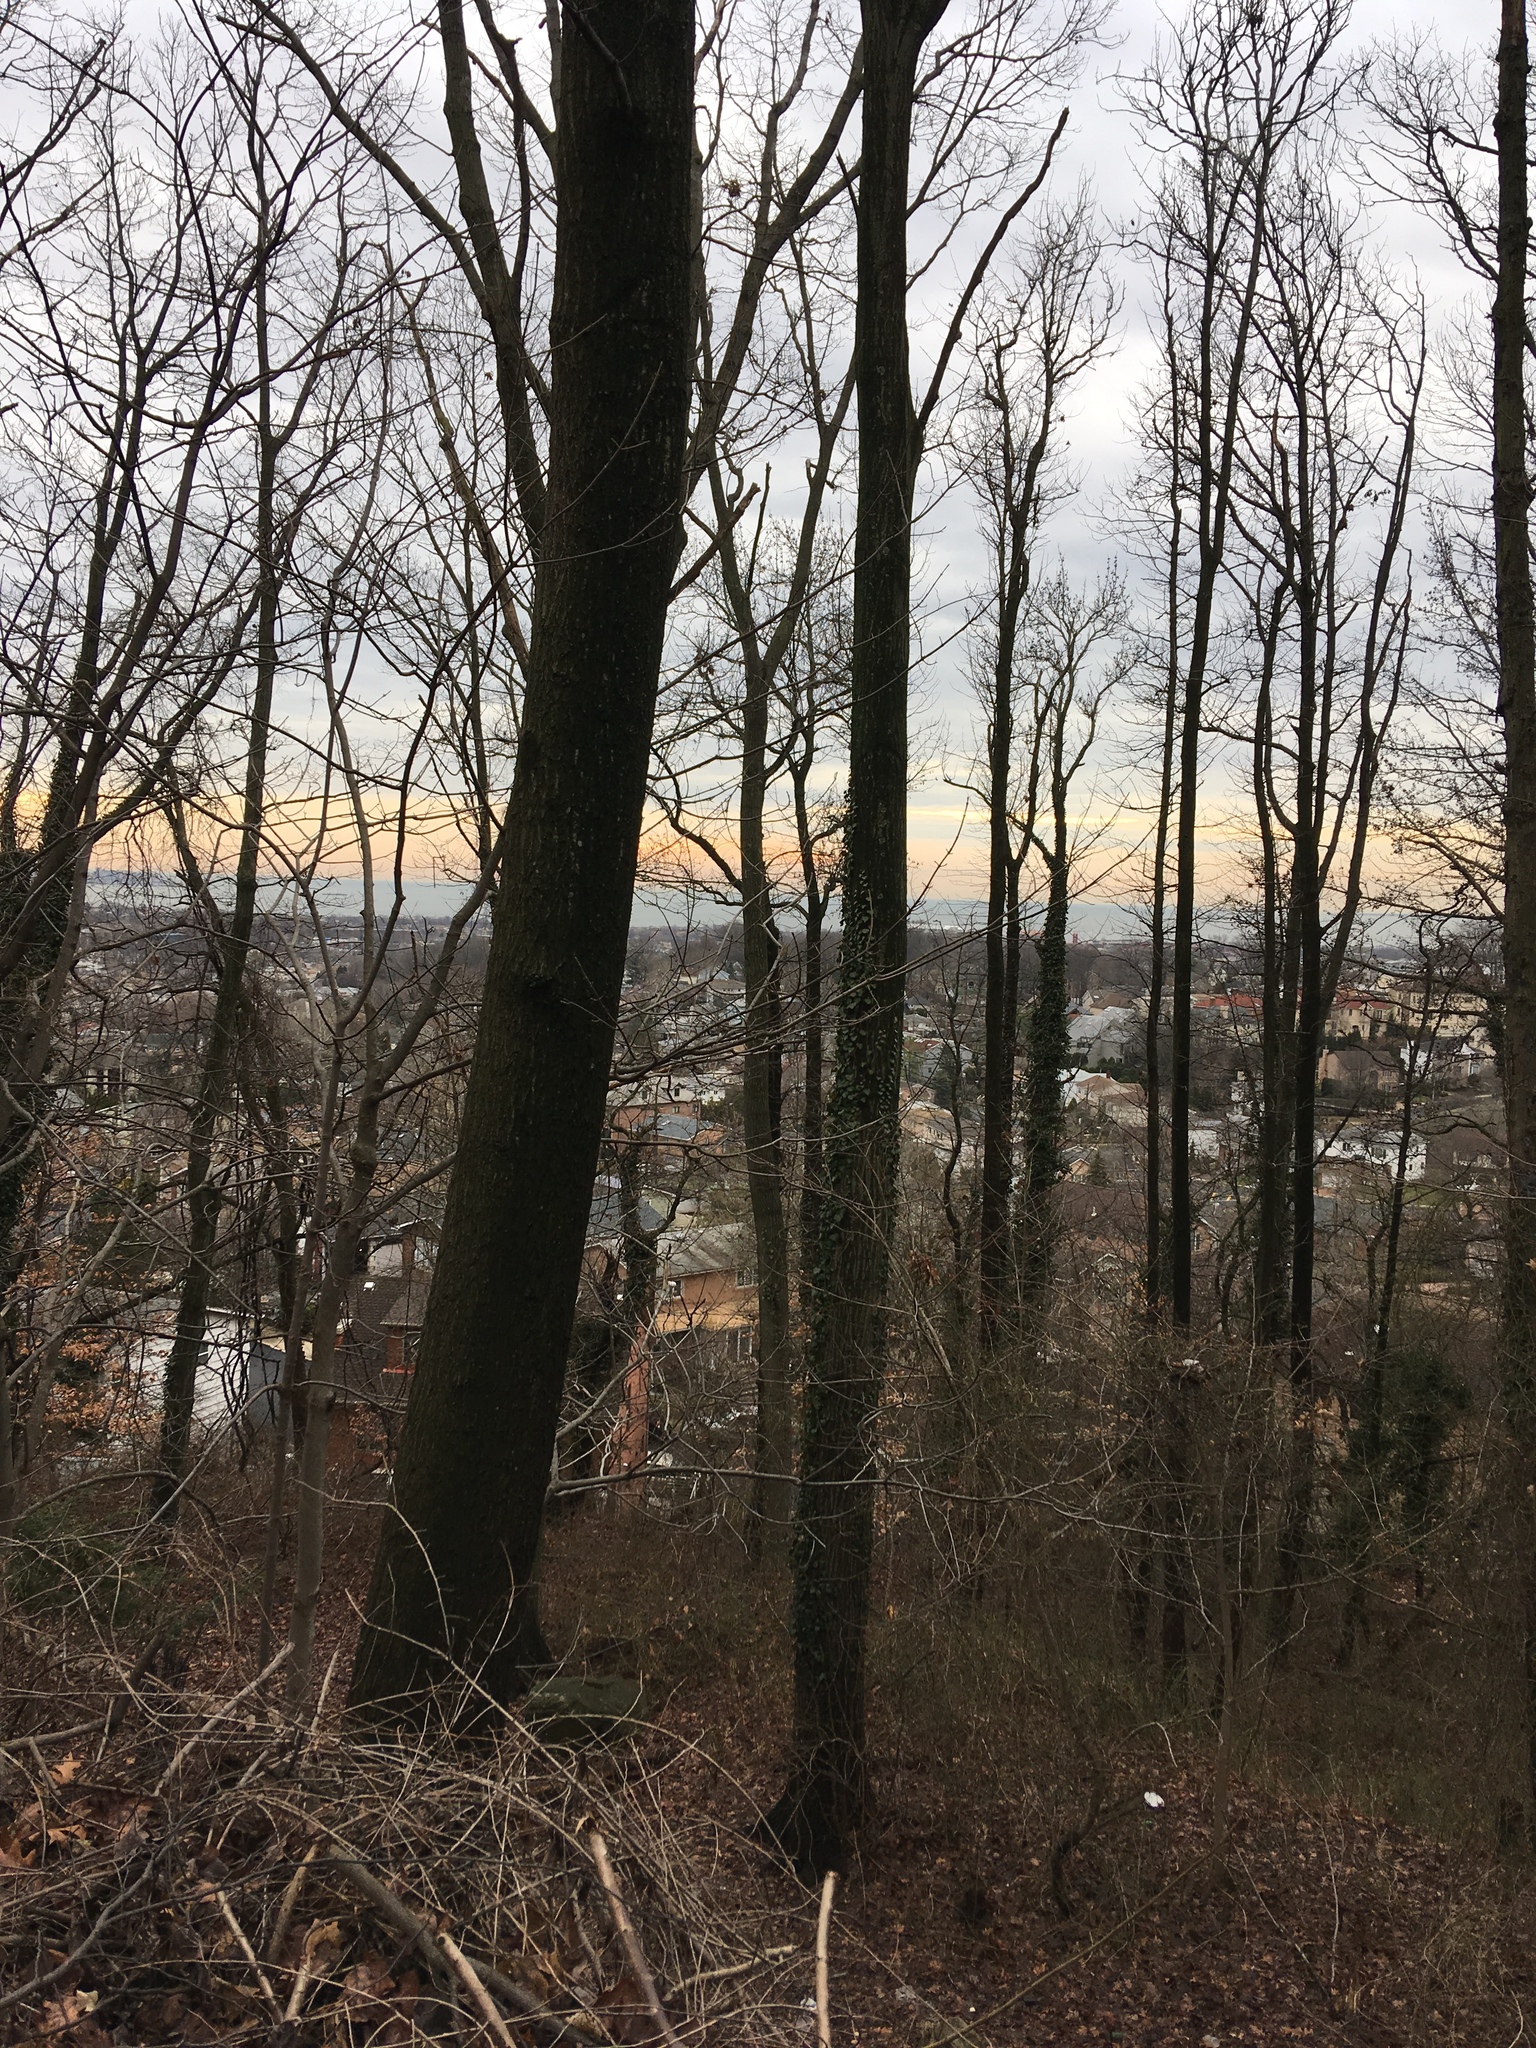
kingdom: Plantae
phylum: Tracheophyta
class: Magnoliopsida
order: Apiales
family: Araliaceae
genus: Hedera
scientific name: Hedera helix
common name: Ivy
